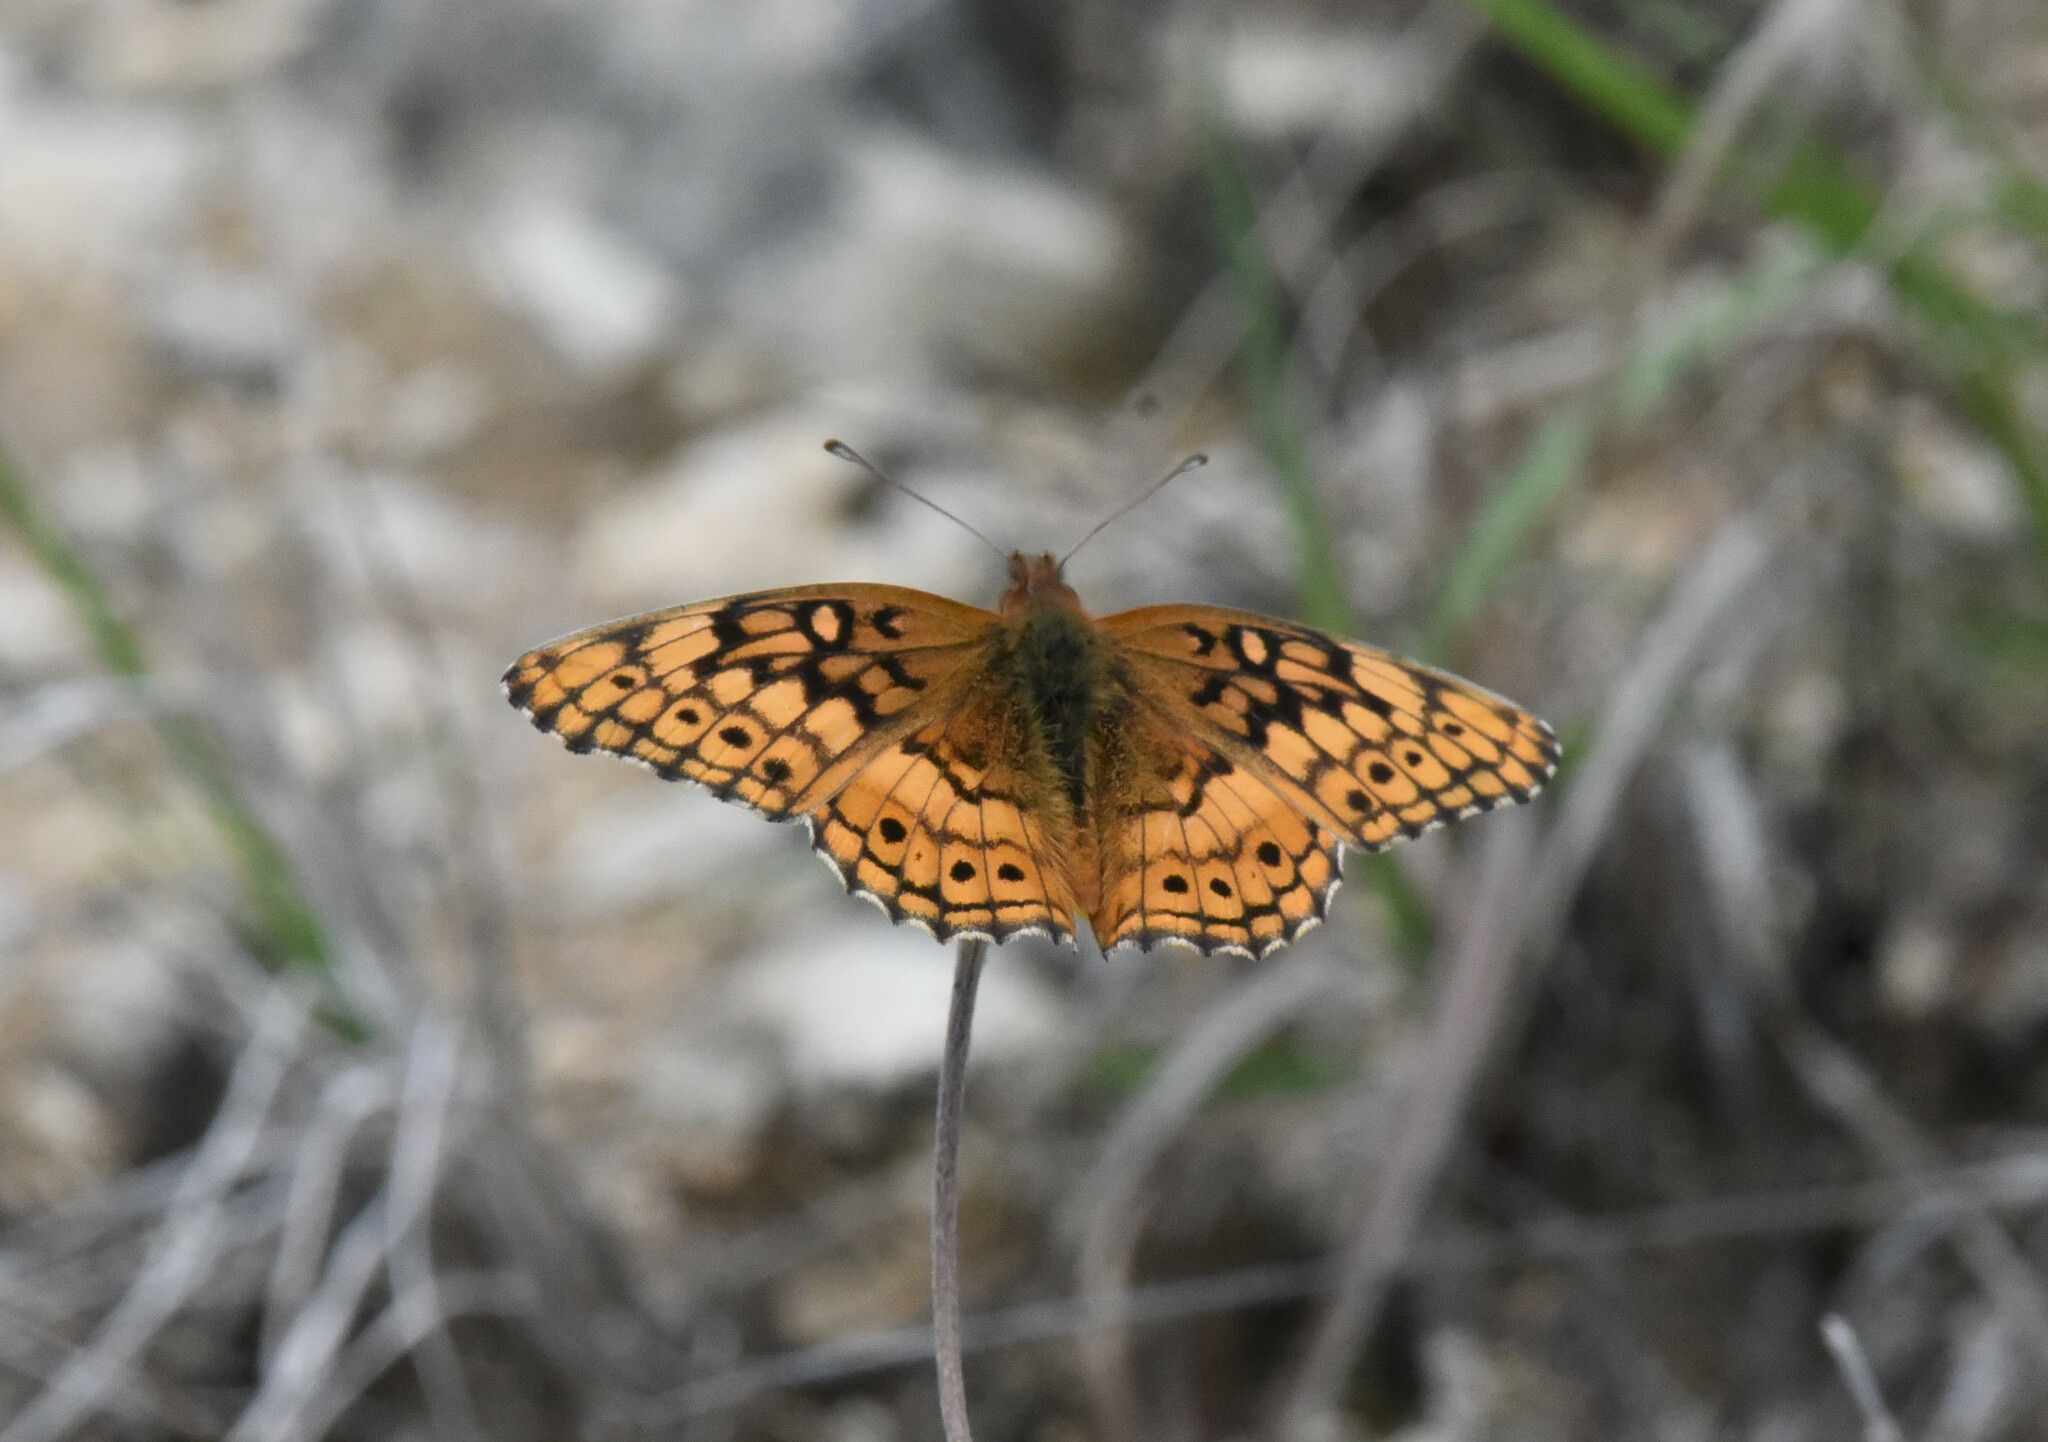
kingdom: Animalia
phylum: Arthropoda
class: Insecta
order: Lepidoptera
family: Nymphalidae
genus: Euptoieta
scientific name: Euptoieta claudia
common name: Variegated fritillary
